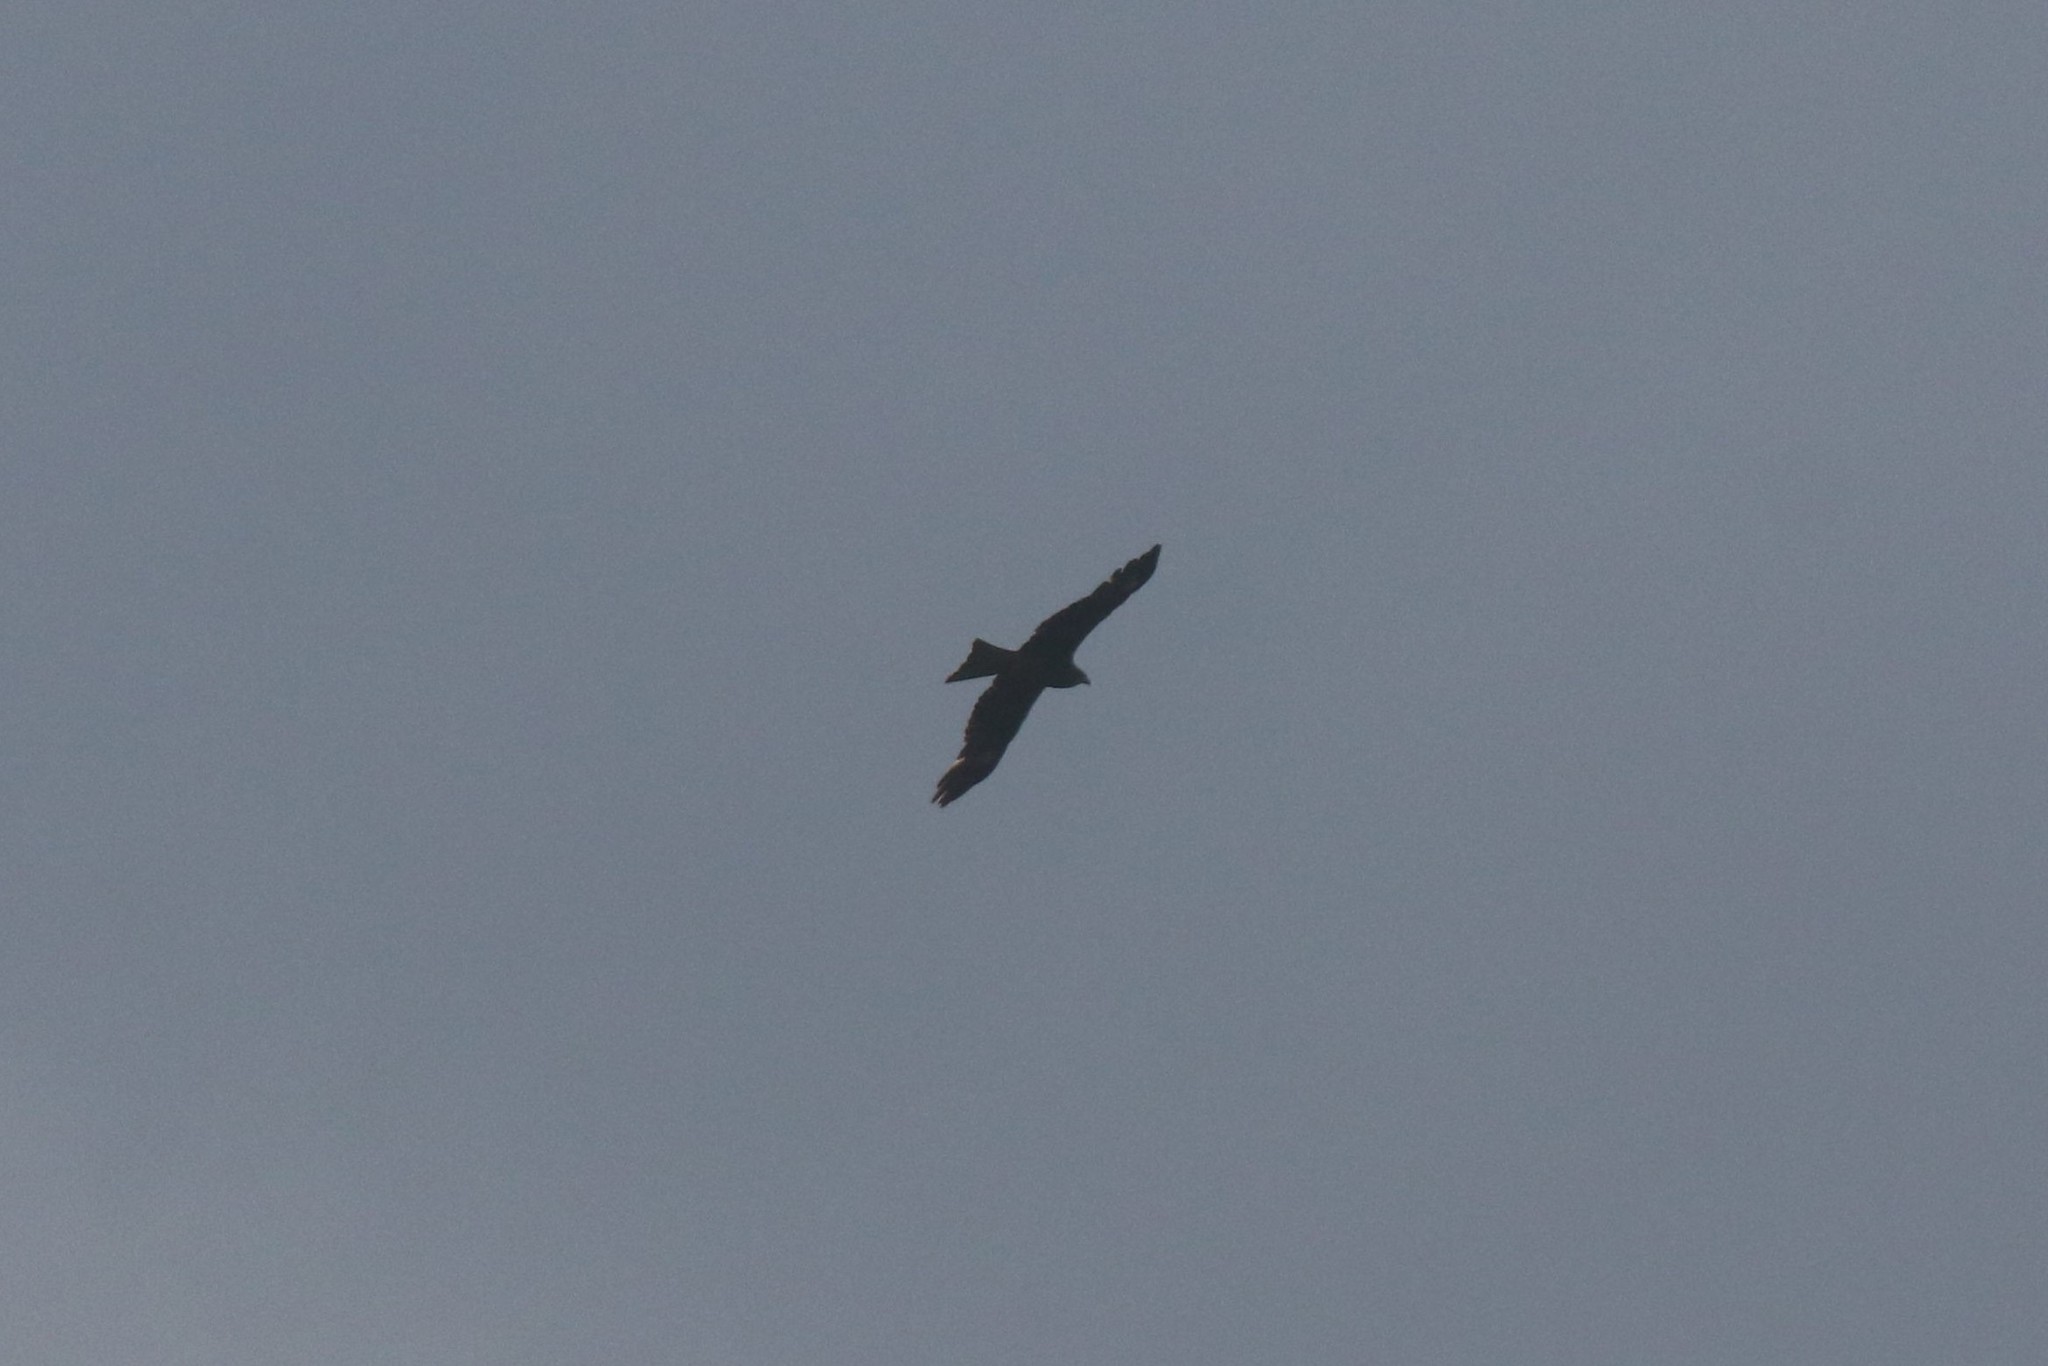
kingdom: Animalia
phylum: Chordata
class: Aves
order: Accipitriformes
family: Accipitridae
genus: Milvus
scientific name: Milvus migrans
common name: Black kite
